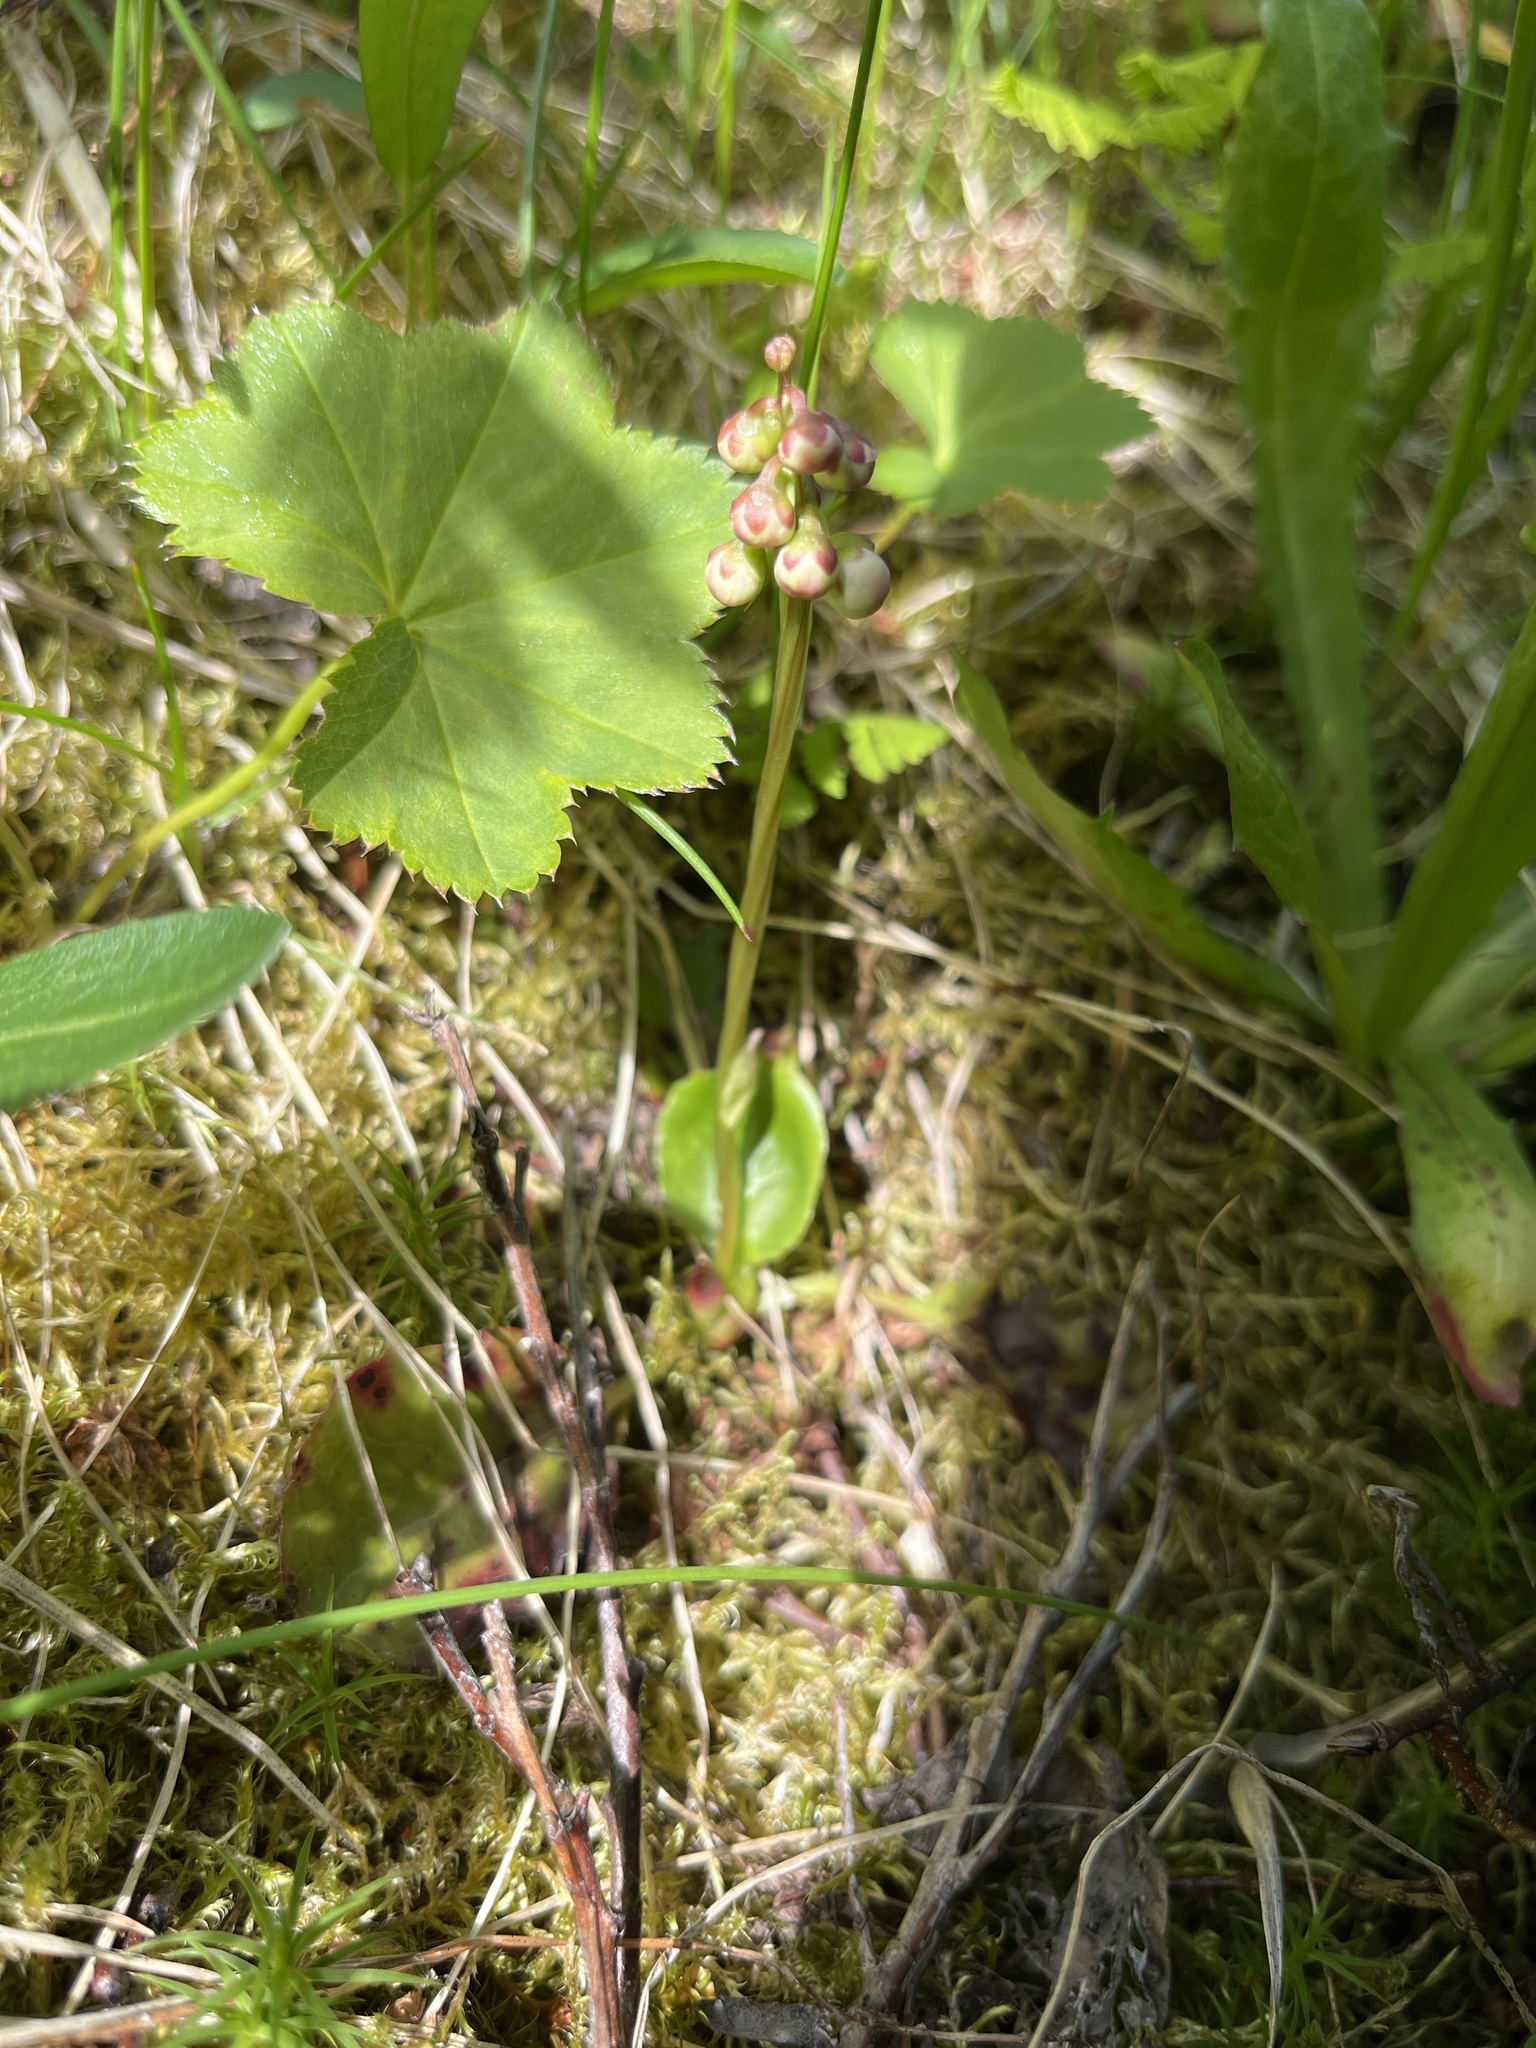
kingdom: Plantae
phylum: Tracheophyta
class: Magnoliopsida
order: Ericales
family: Ericaceae
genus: Pyrola
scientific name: Pyrola minor
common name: Common wintergreen
